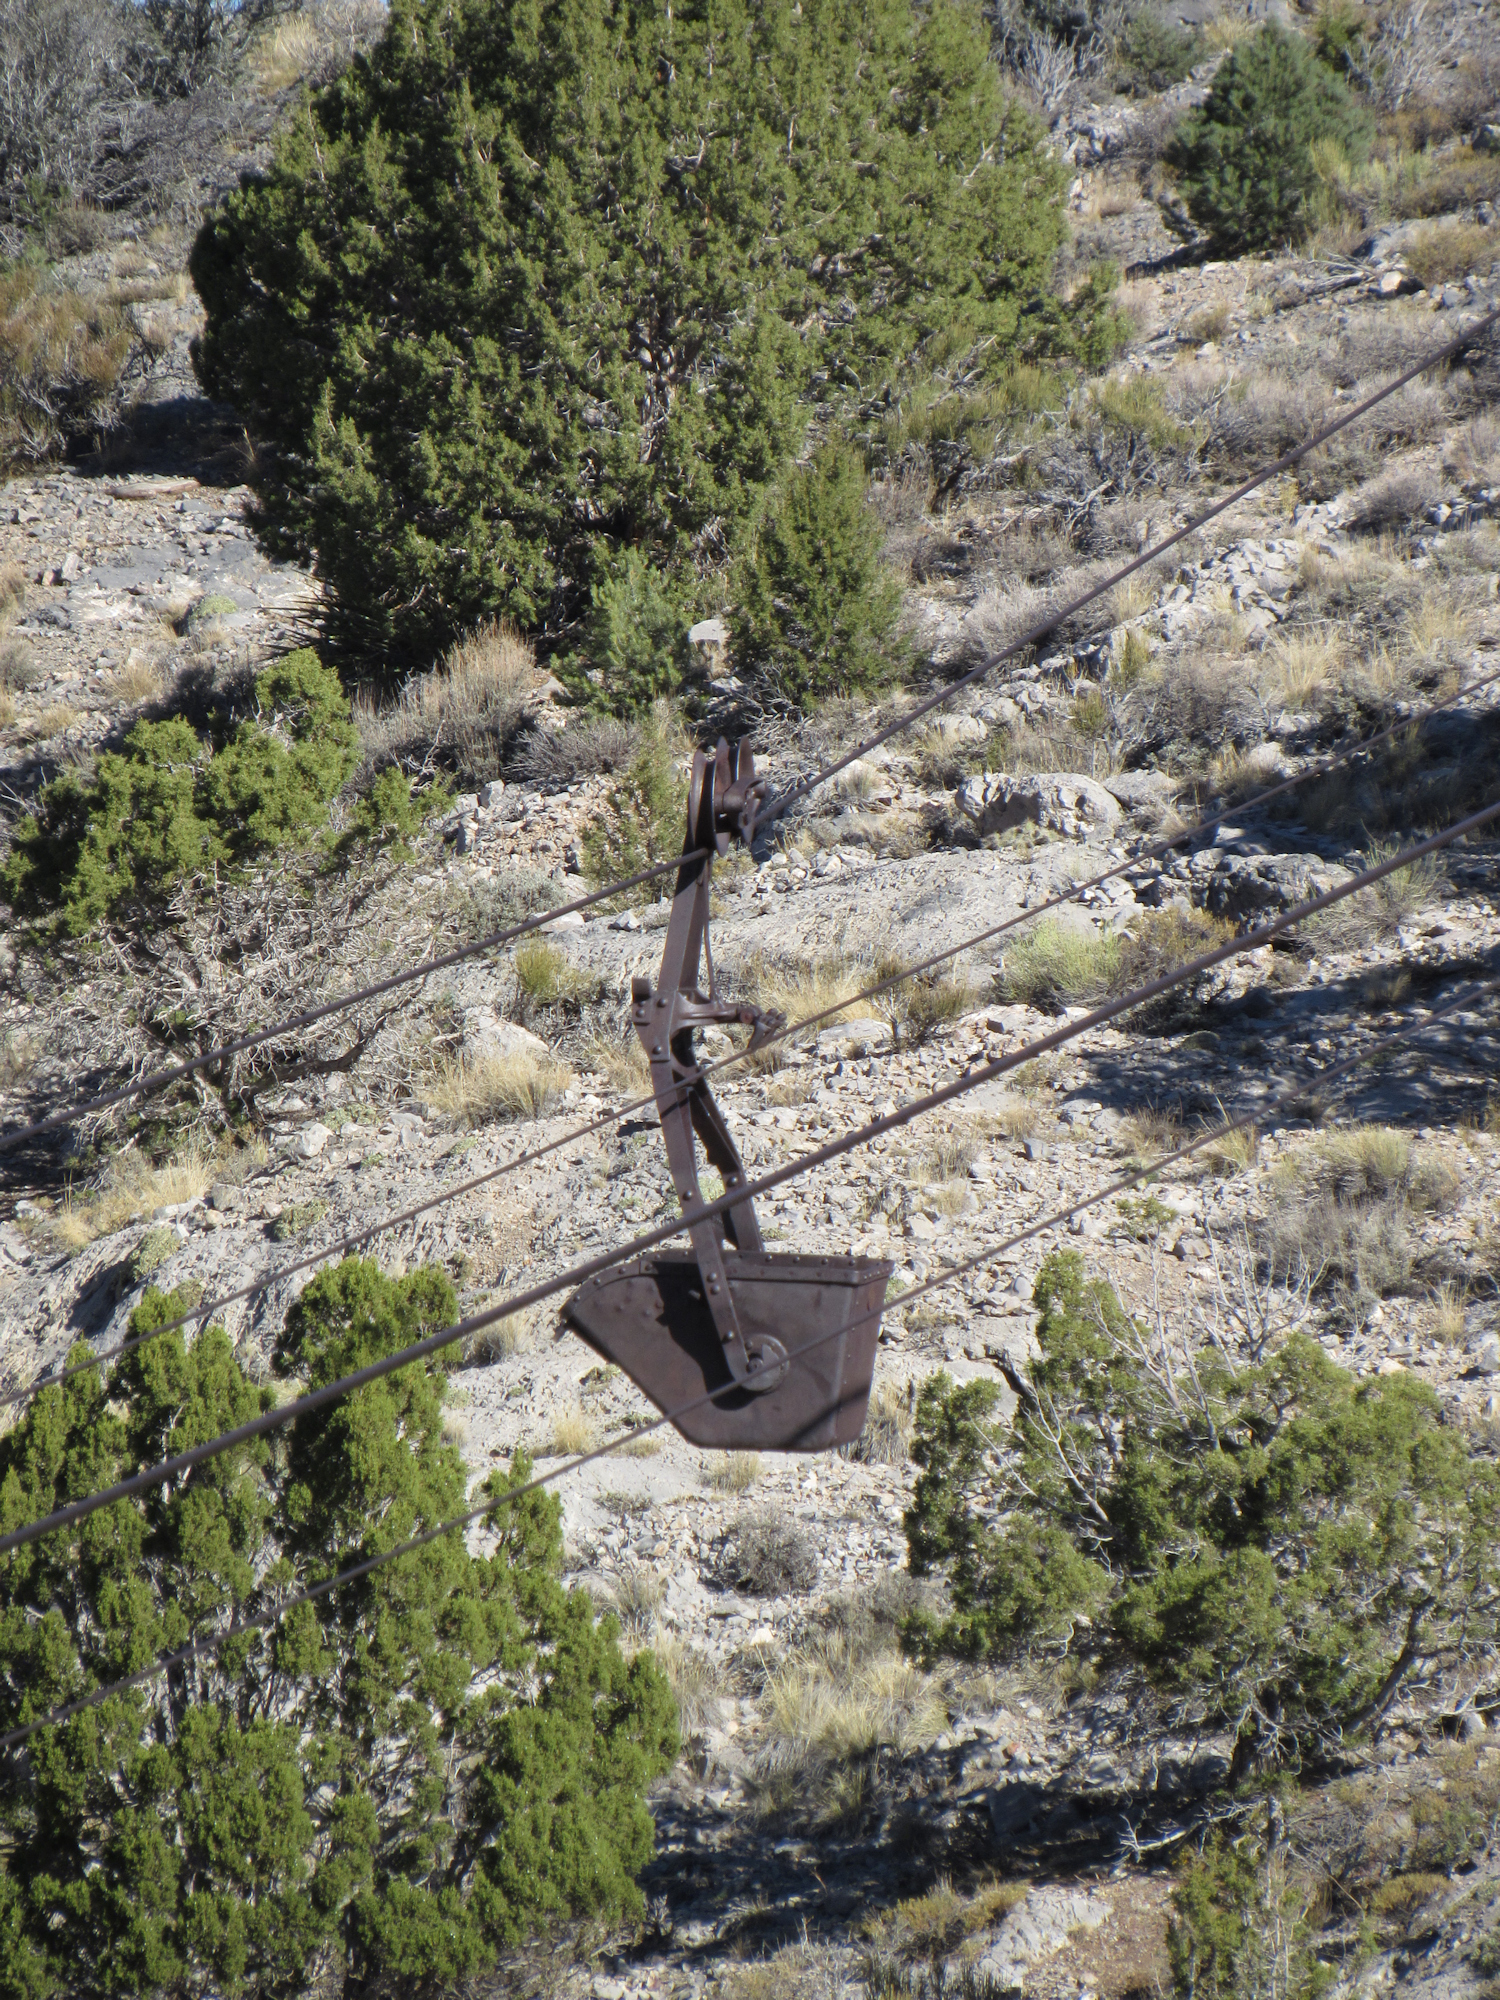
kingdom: Plantae
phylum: Tracheophyta
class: Pinopsida
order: Pinales
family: Cupressaceae
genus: Juniperus
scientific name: Juniperus osteosperma
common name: Utah juniper
